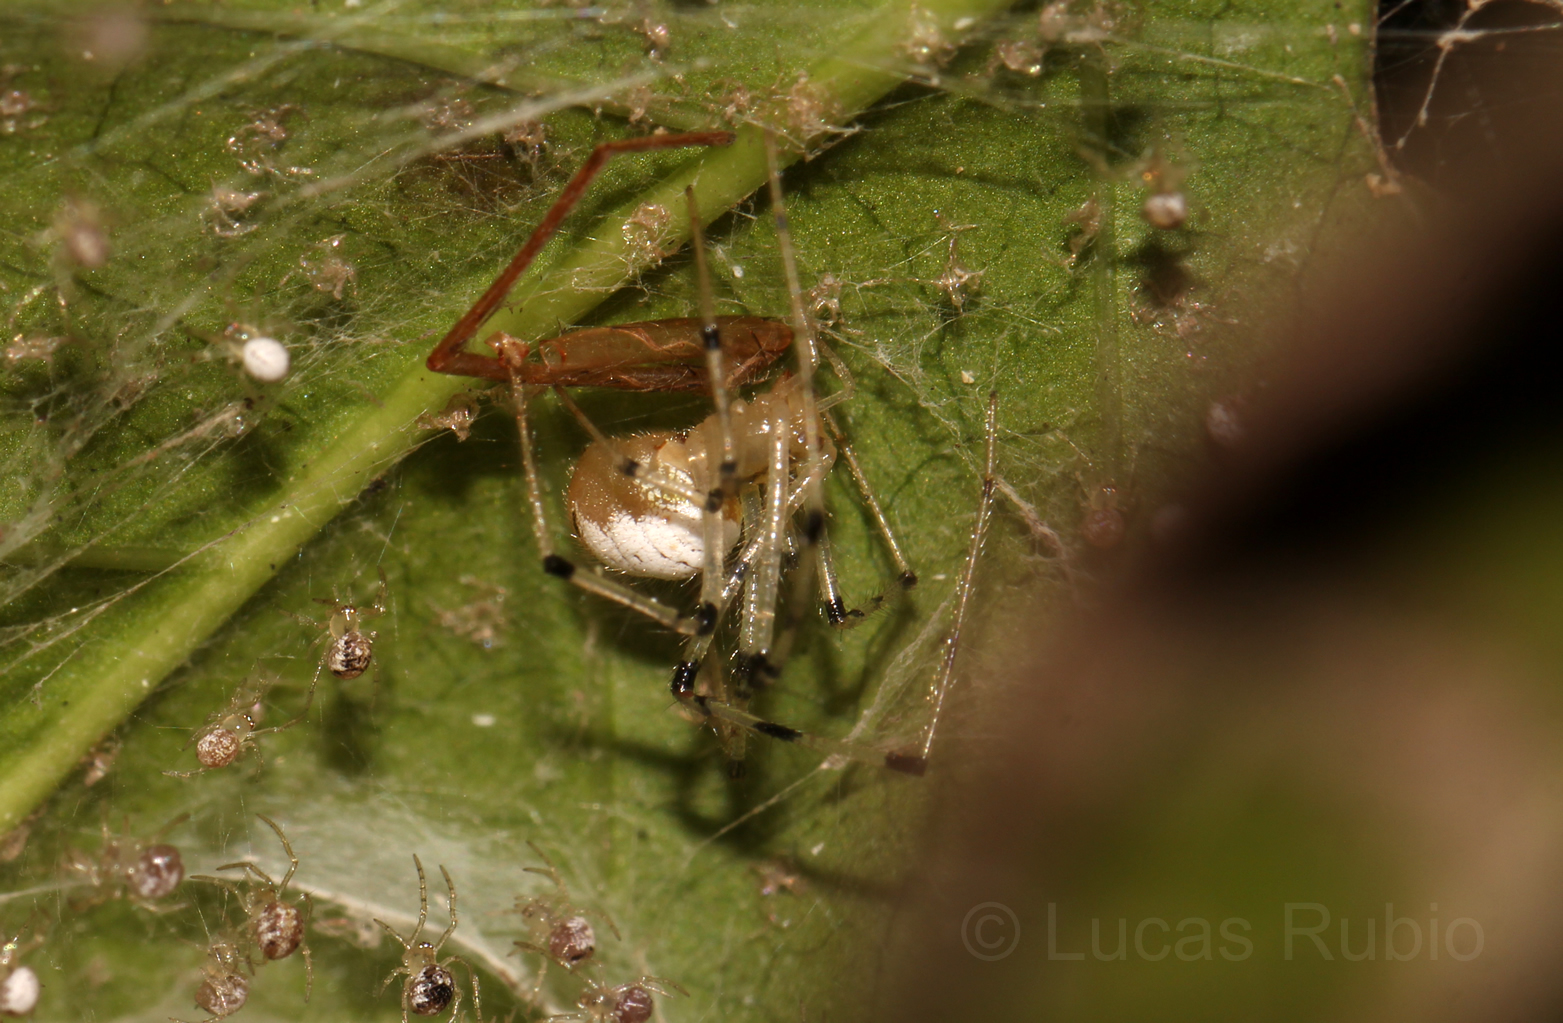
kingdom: Animalia
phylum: Arthropoda
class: Arachnida
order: Araneae
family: Theridiidae
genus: Theridion
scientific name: Theridion calcynatum
